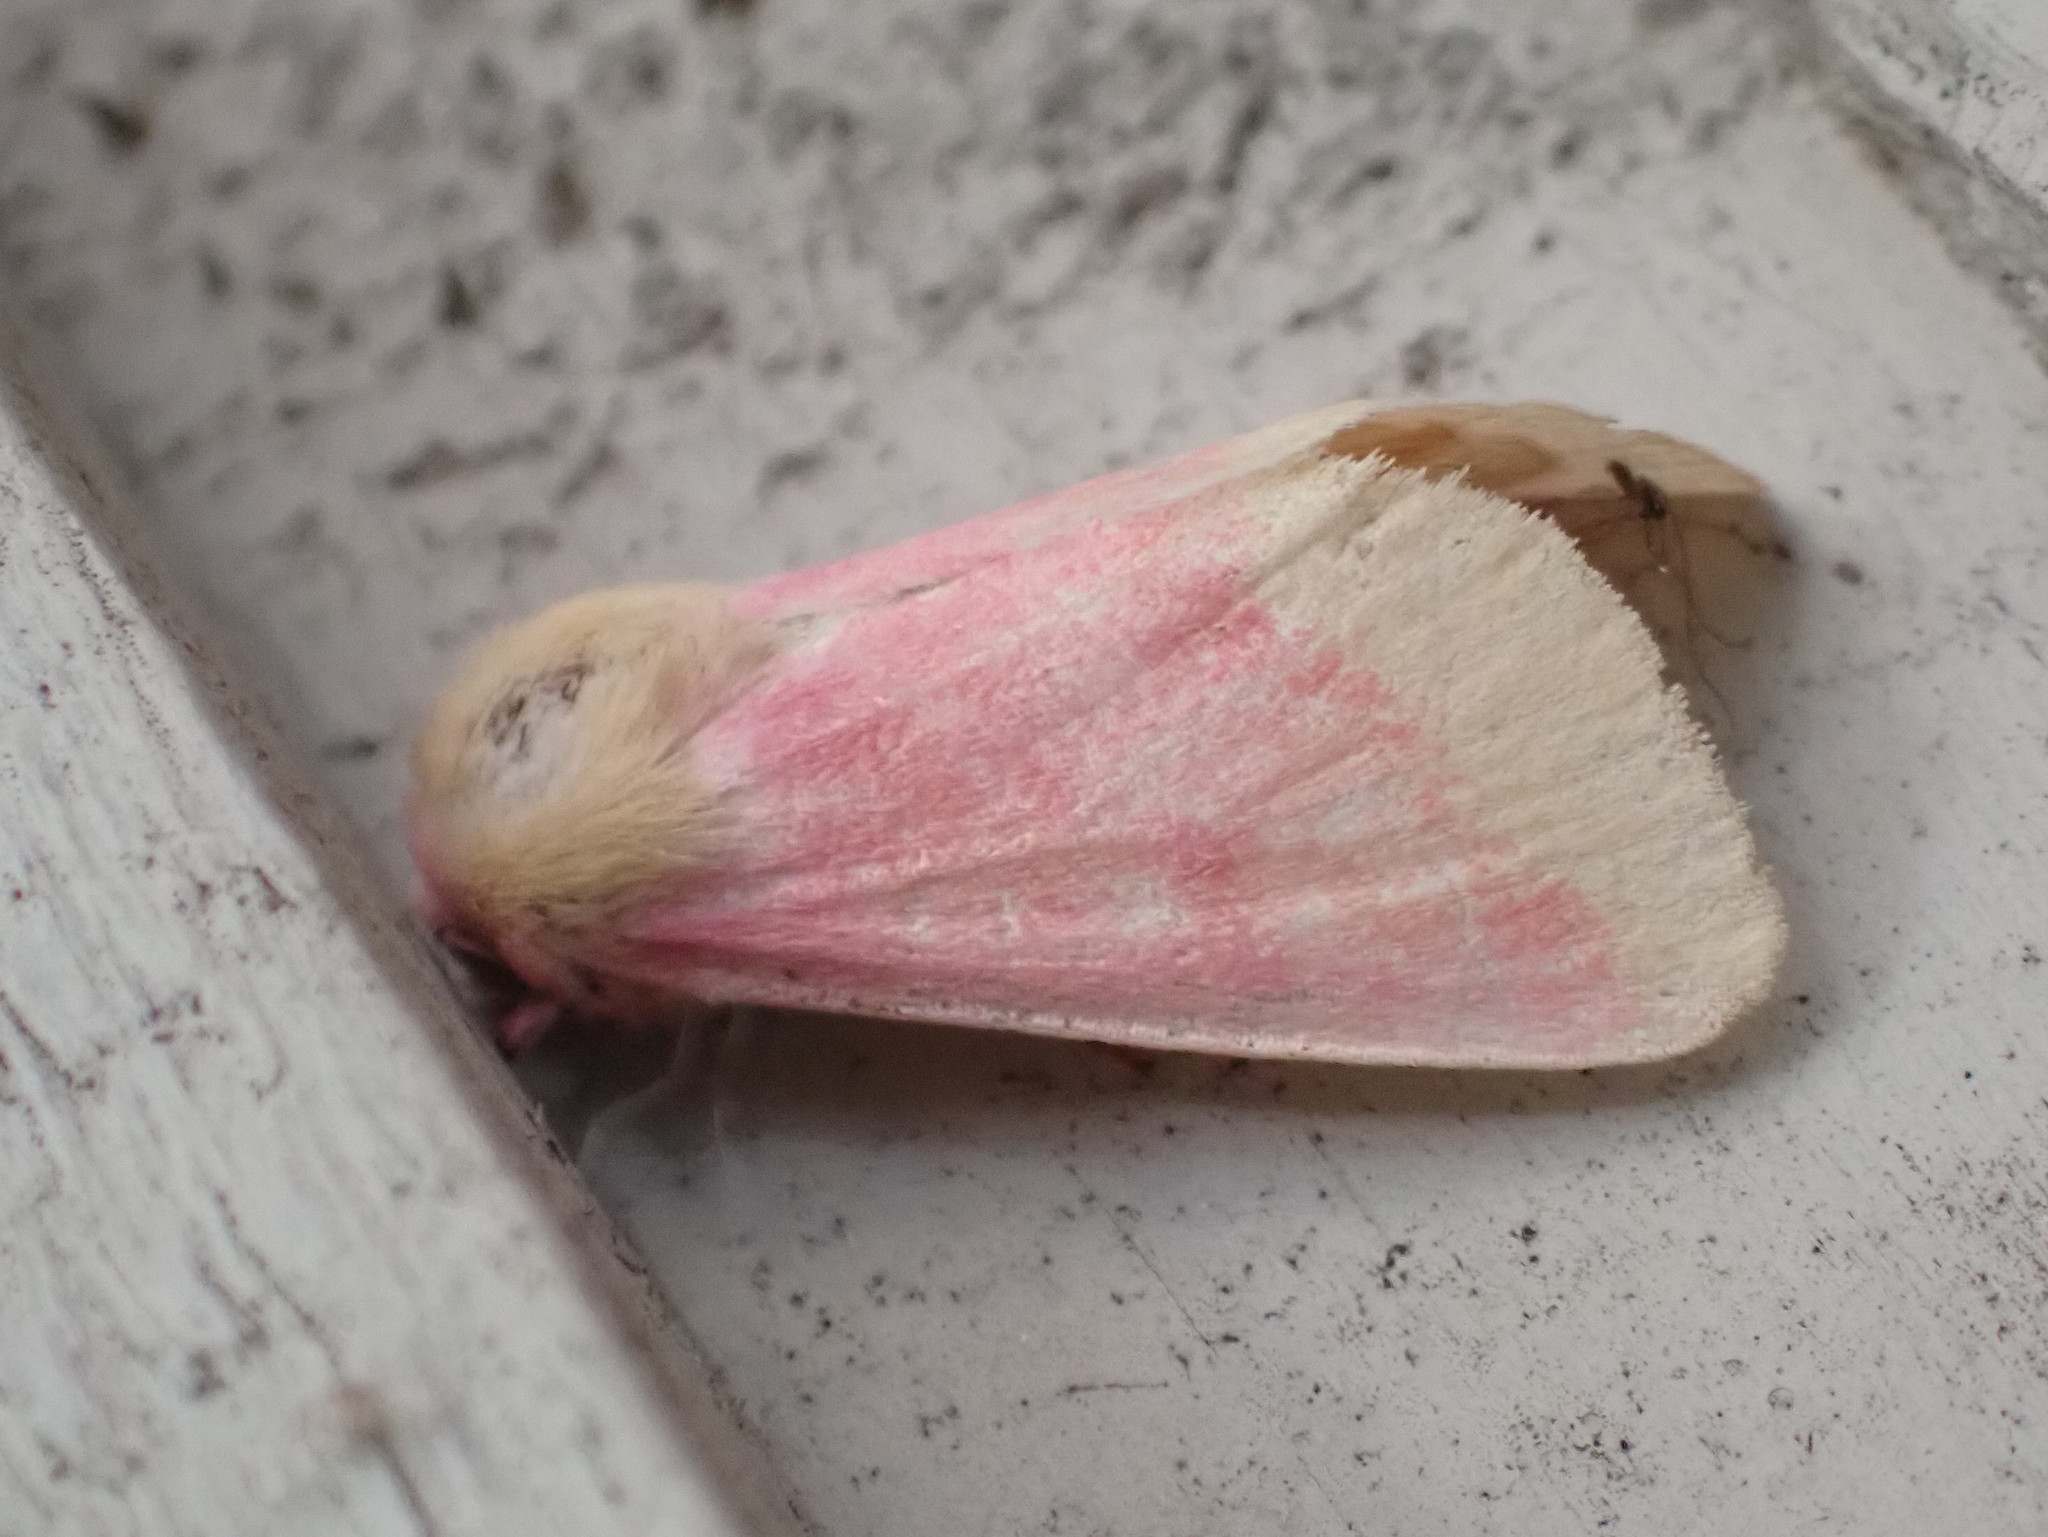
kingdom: Animalia
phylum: Arthropoda
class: Insecta
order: Lepidoptera
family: Noctuidae
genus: Schinia
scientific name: Schinia florida
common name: Primrose moth
